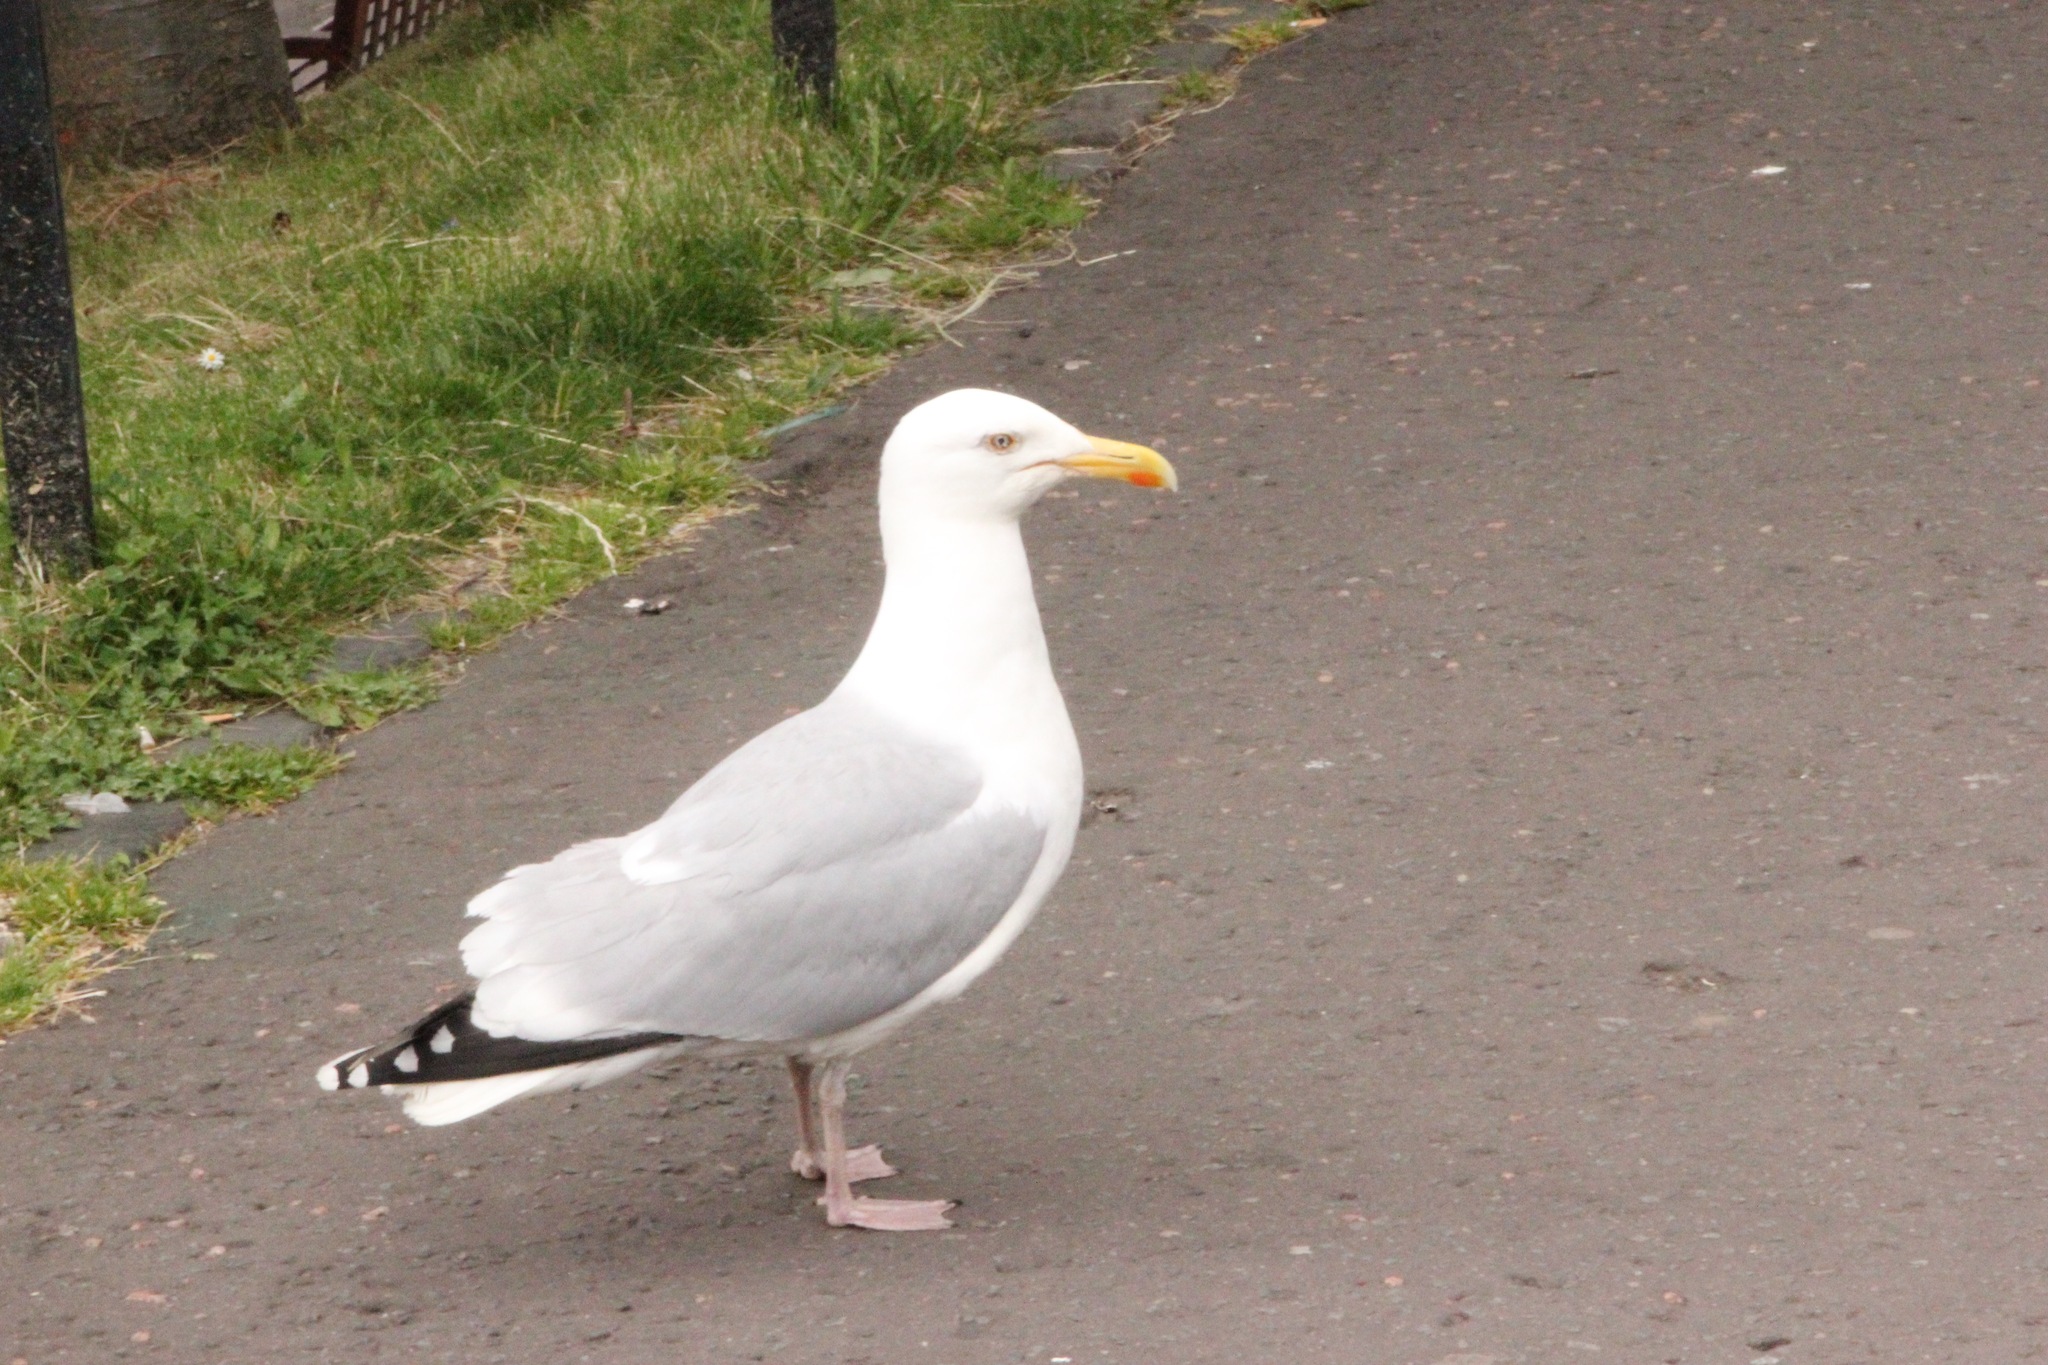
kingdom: Animalia
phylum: Chordata
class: Aves
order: Charadriiformes
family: Laridae
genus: Larus
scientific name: Larus argentatus
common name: Herring gull
